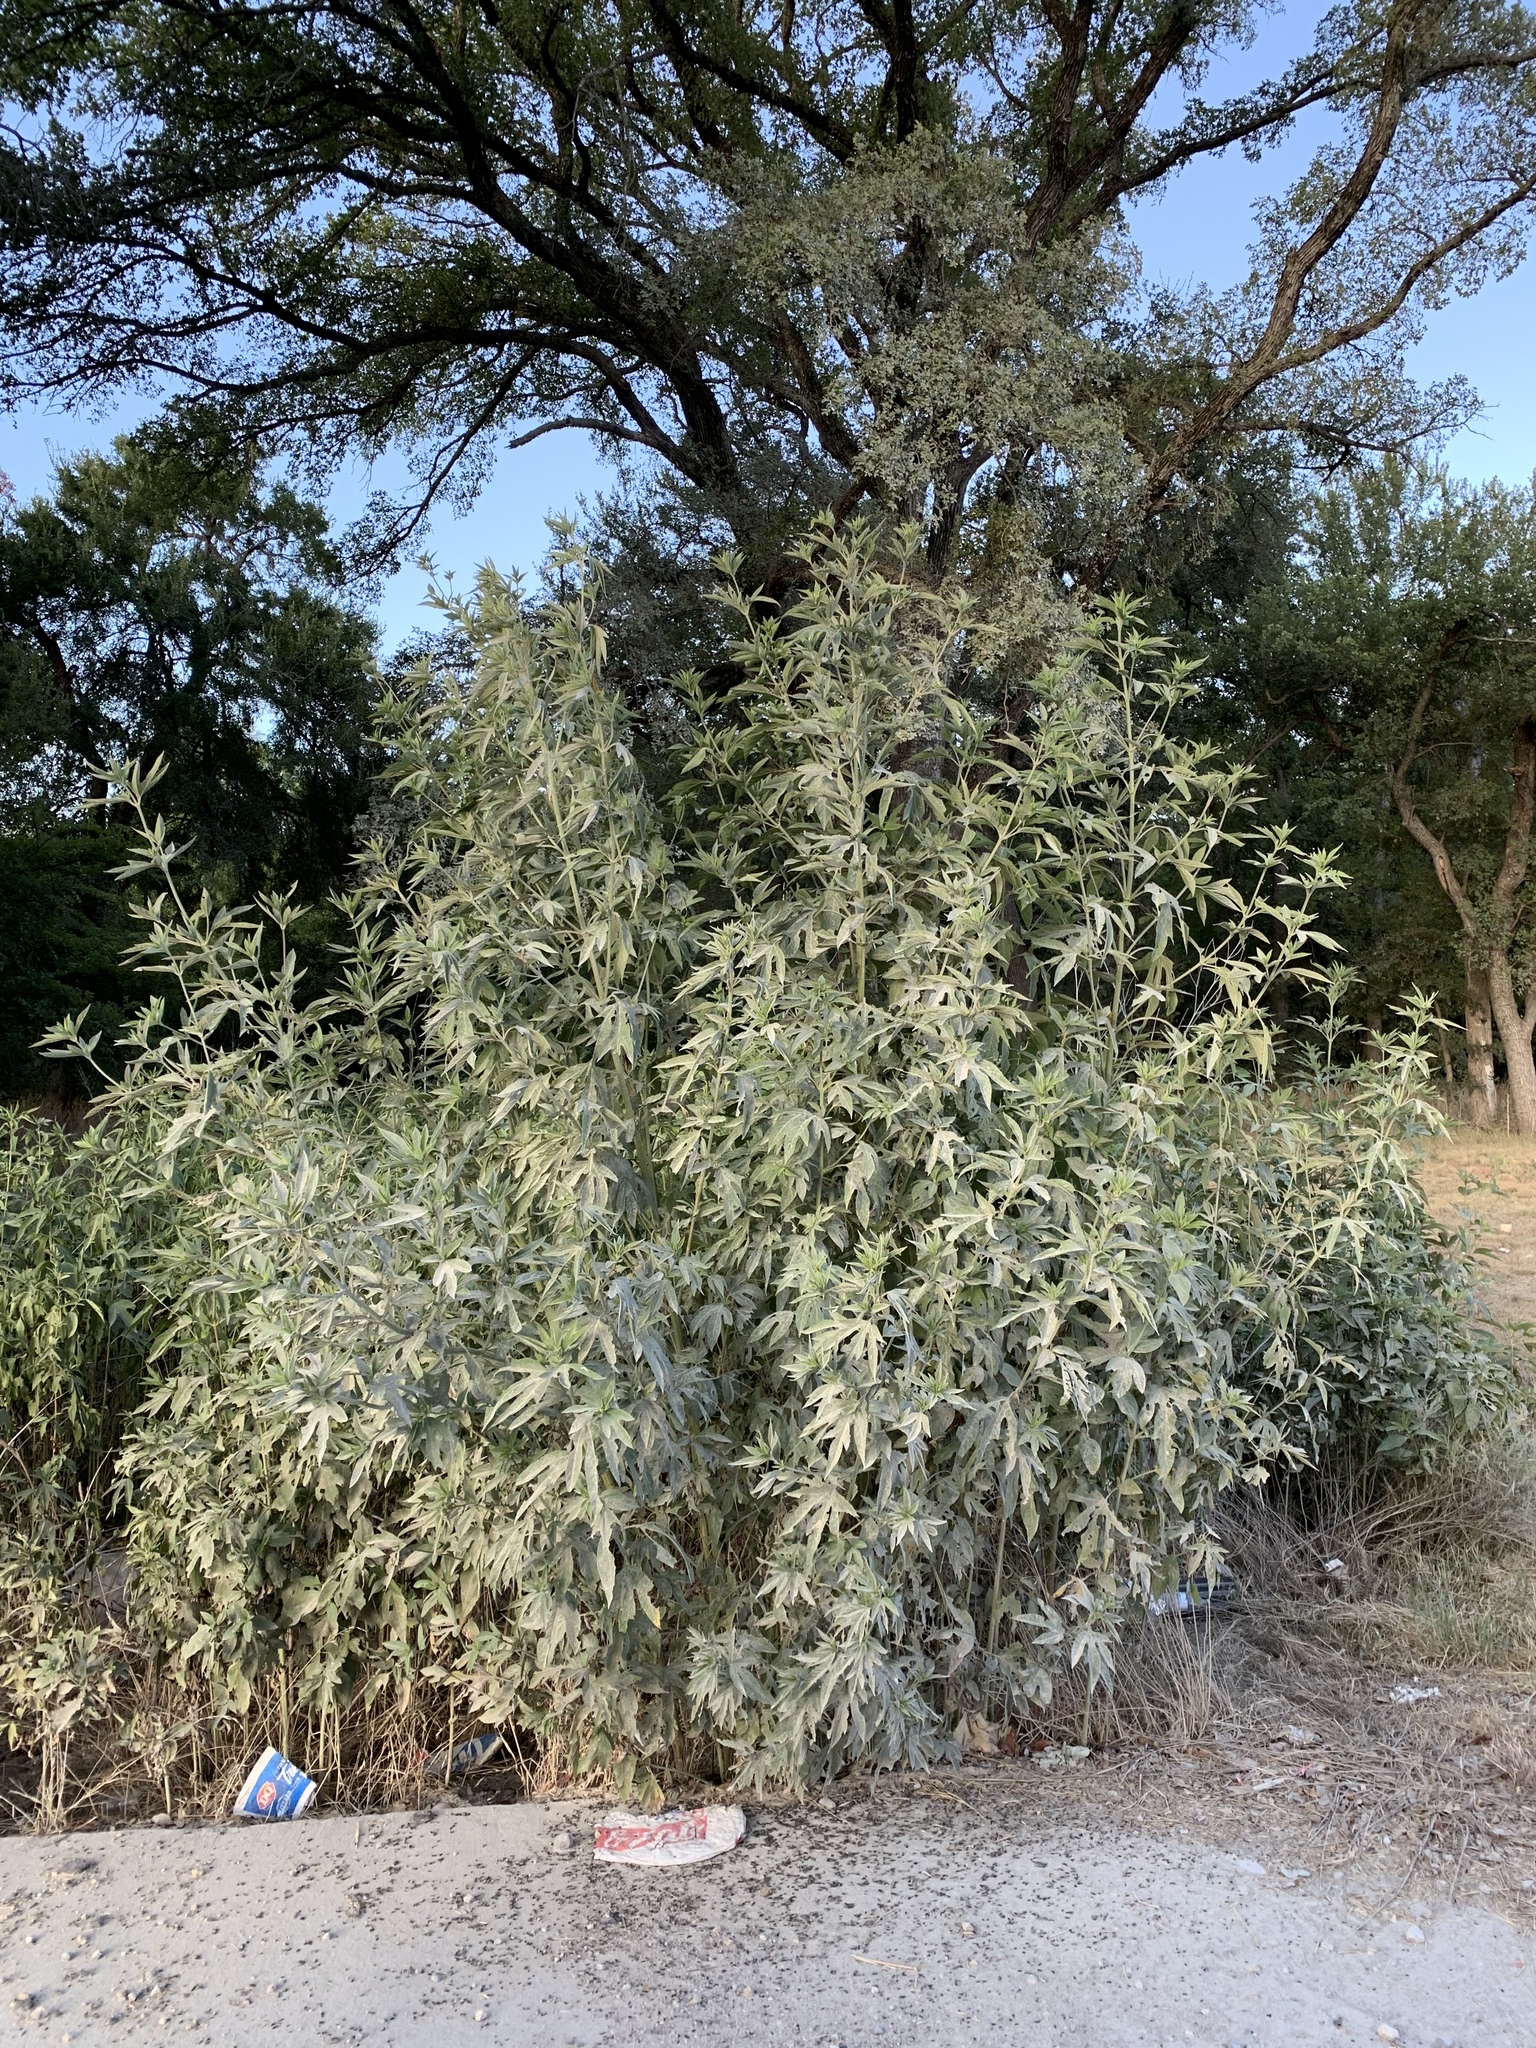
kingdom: Plantae
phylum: Tracheophyta
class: Magnoliopsida
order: Asterales
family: Asteraceae
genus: Ambrosia
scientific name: Ambrosia trifida
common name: Giant ragweed
